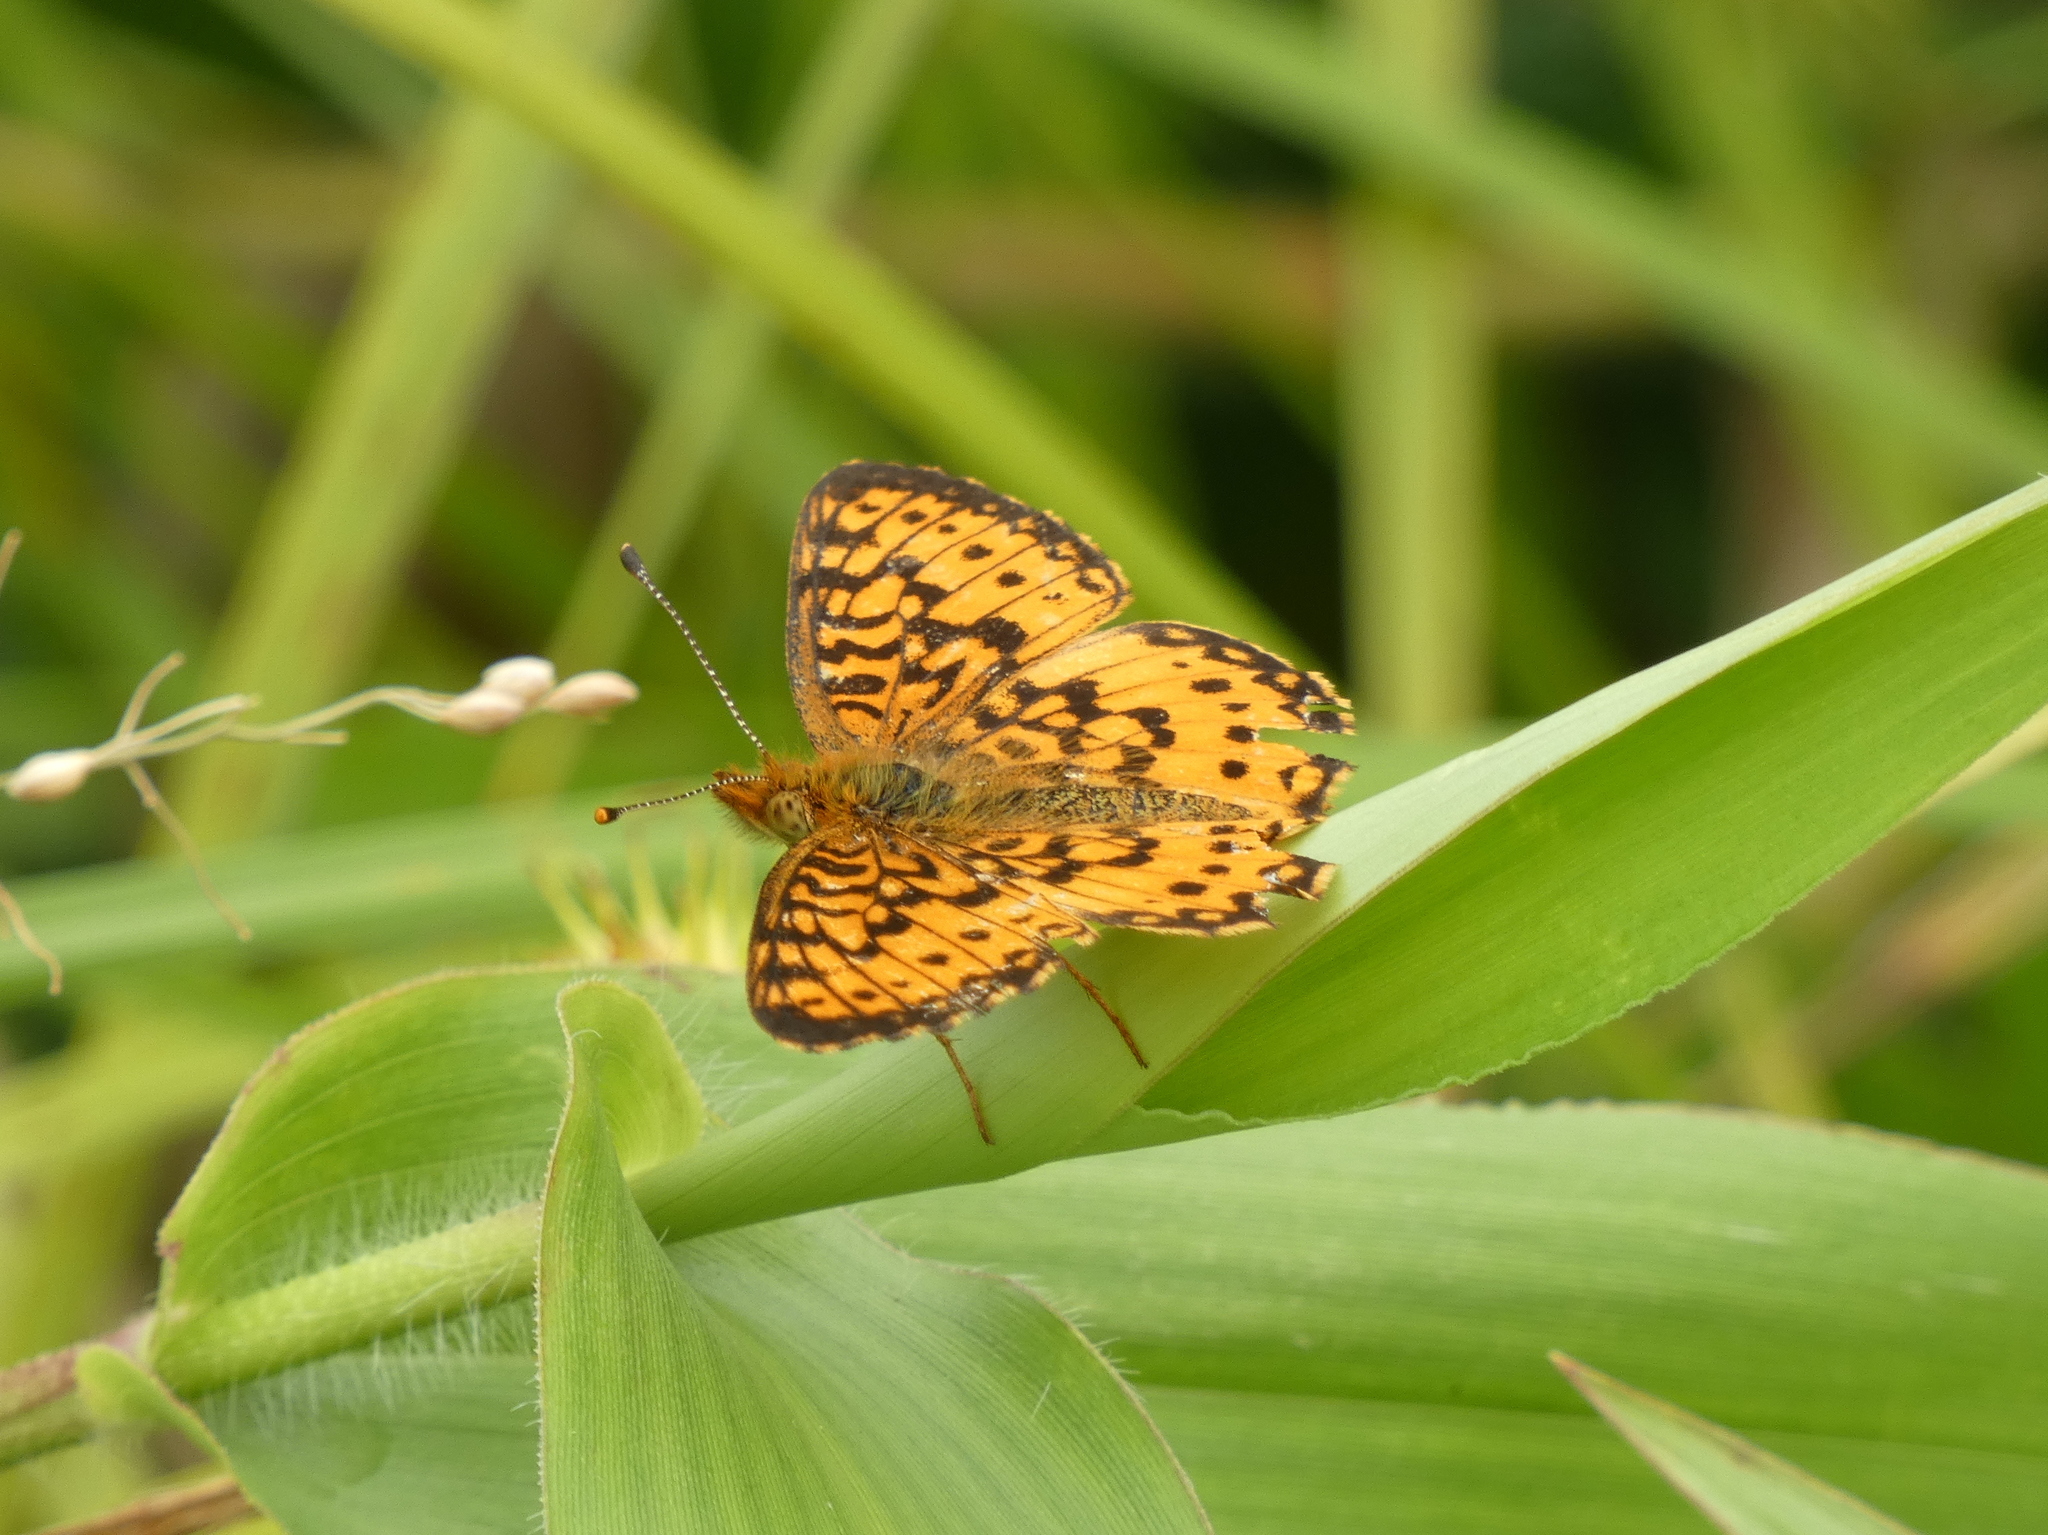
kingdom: Animalia
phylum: Arthropoda
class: Insecta
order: Lepidoptera
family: Nymphalidae
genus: Boloria
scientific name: Boloria
